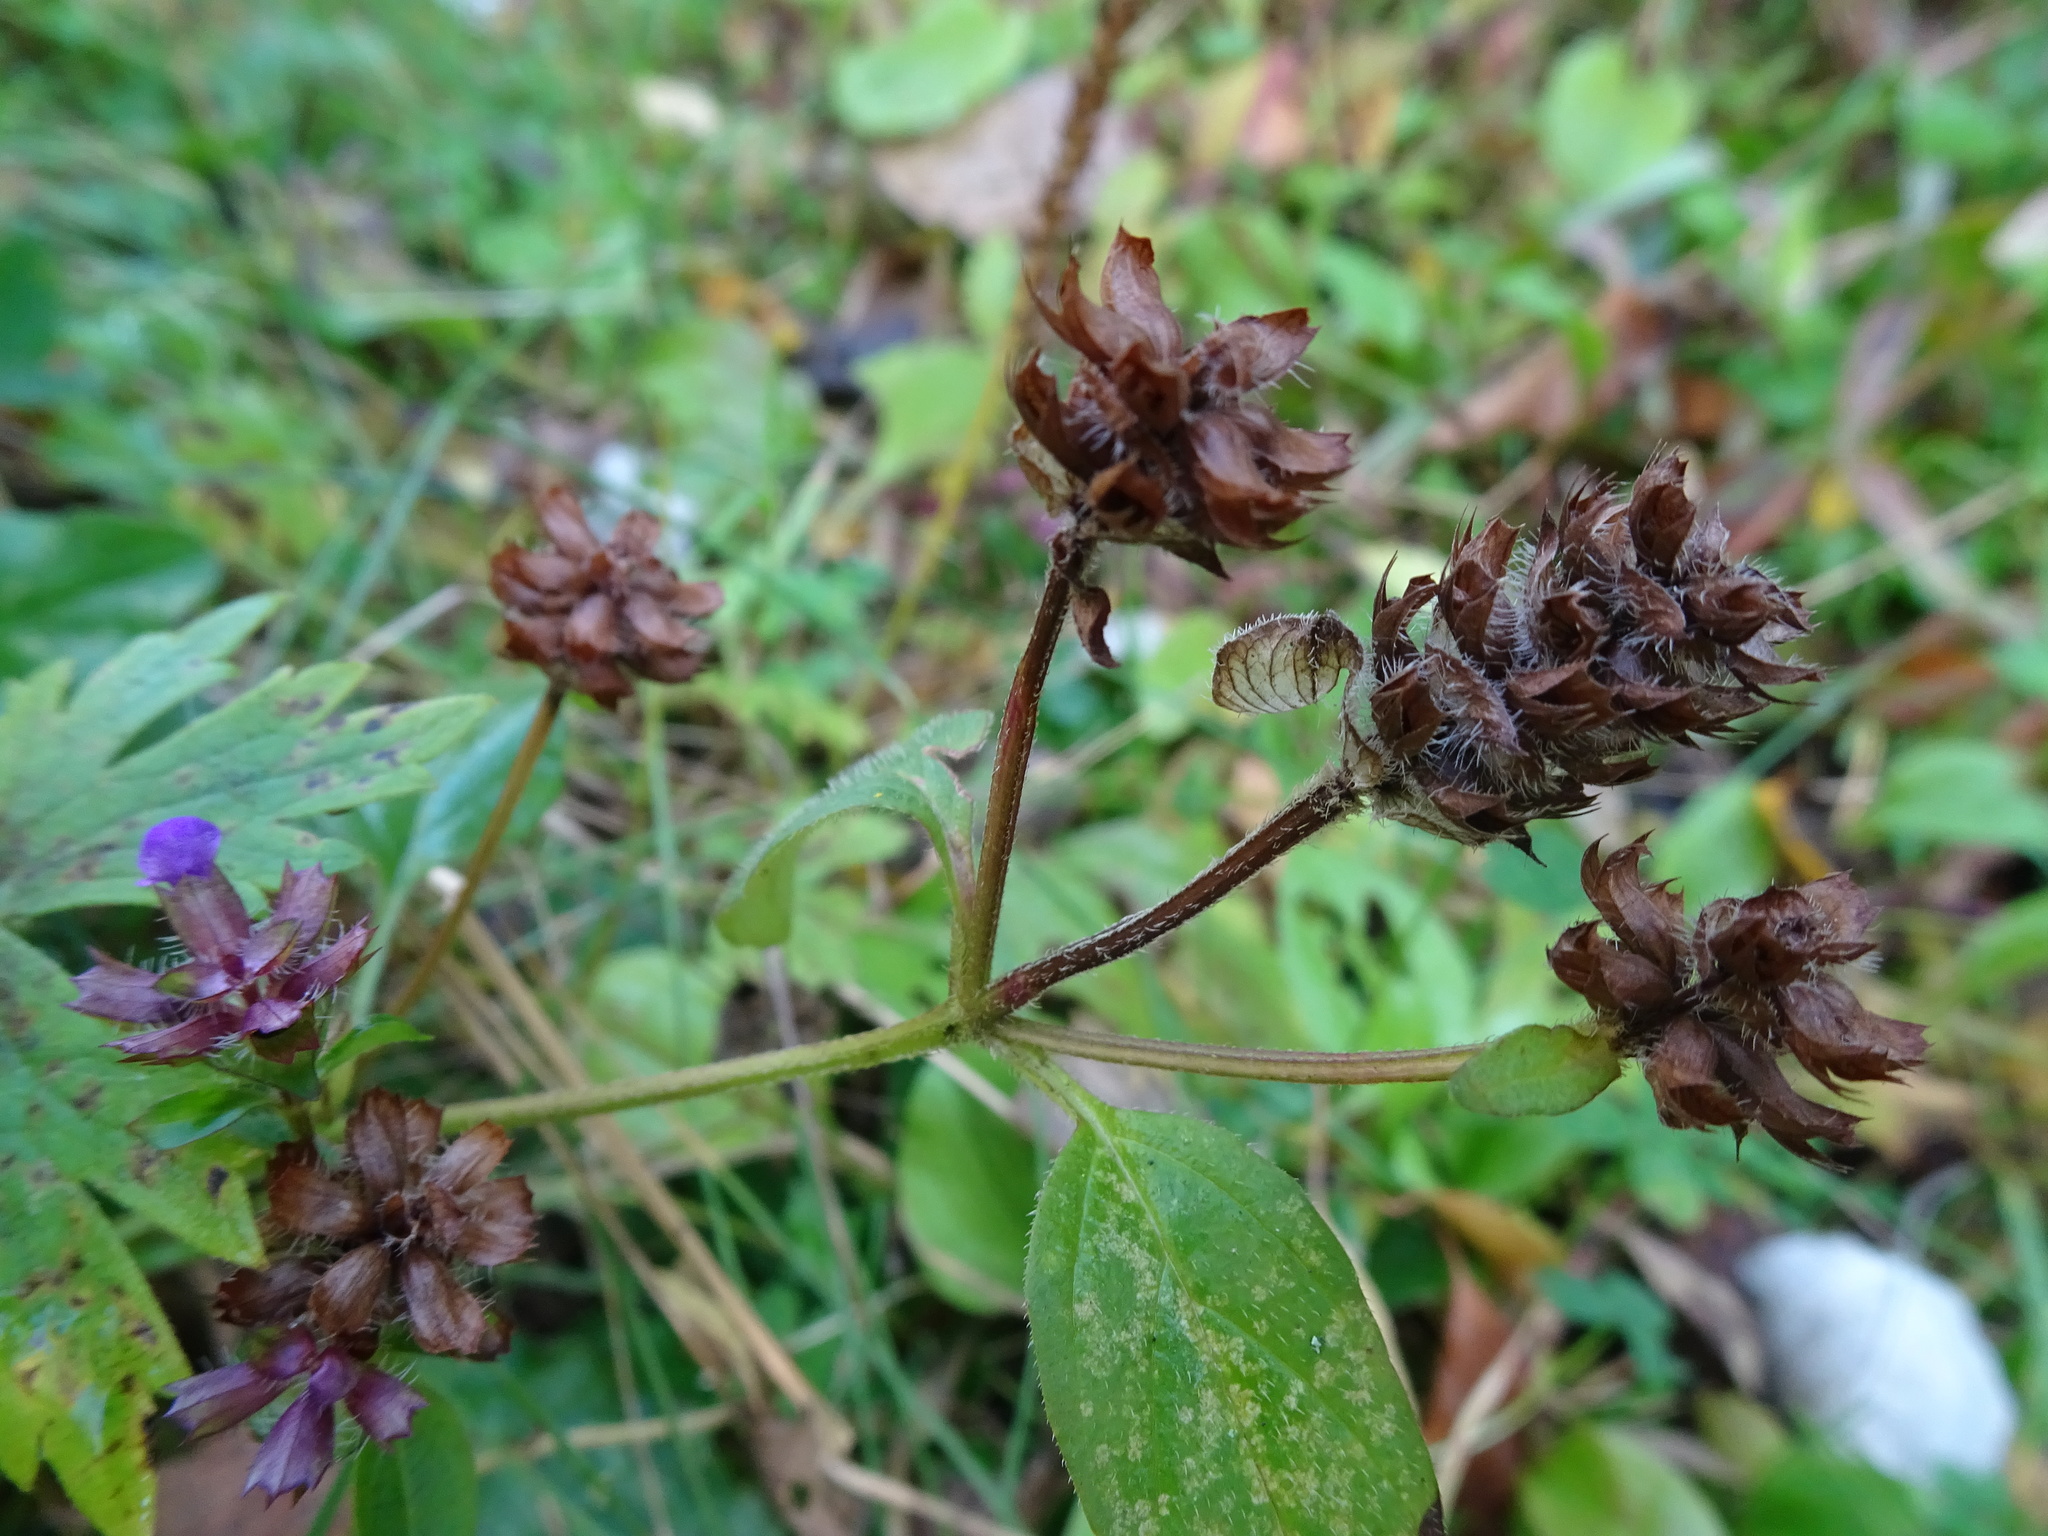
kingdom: Plantae
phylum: Tracheophyta
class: Magnoliopsida
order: Lamiales
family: Lamiaceae
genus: Prunella
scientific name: Prunella vulgaris
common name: Heal-all
